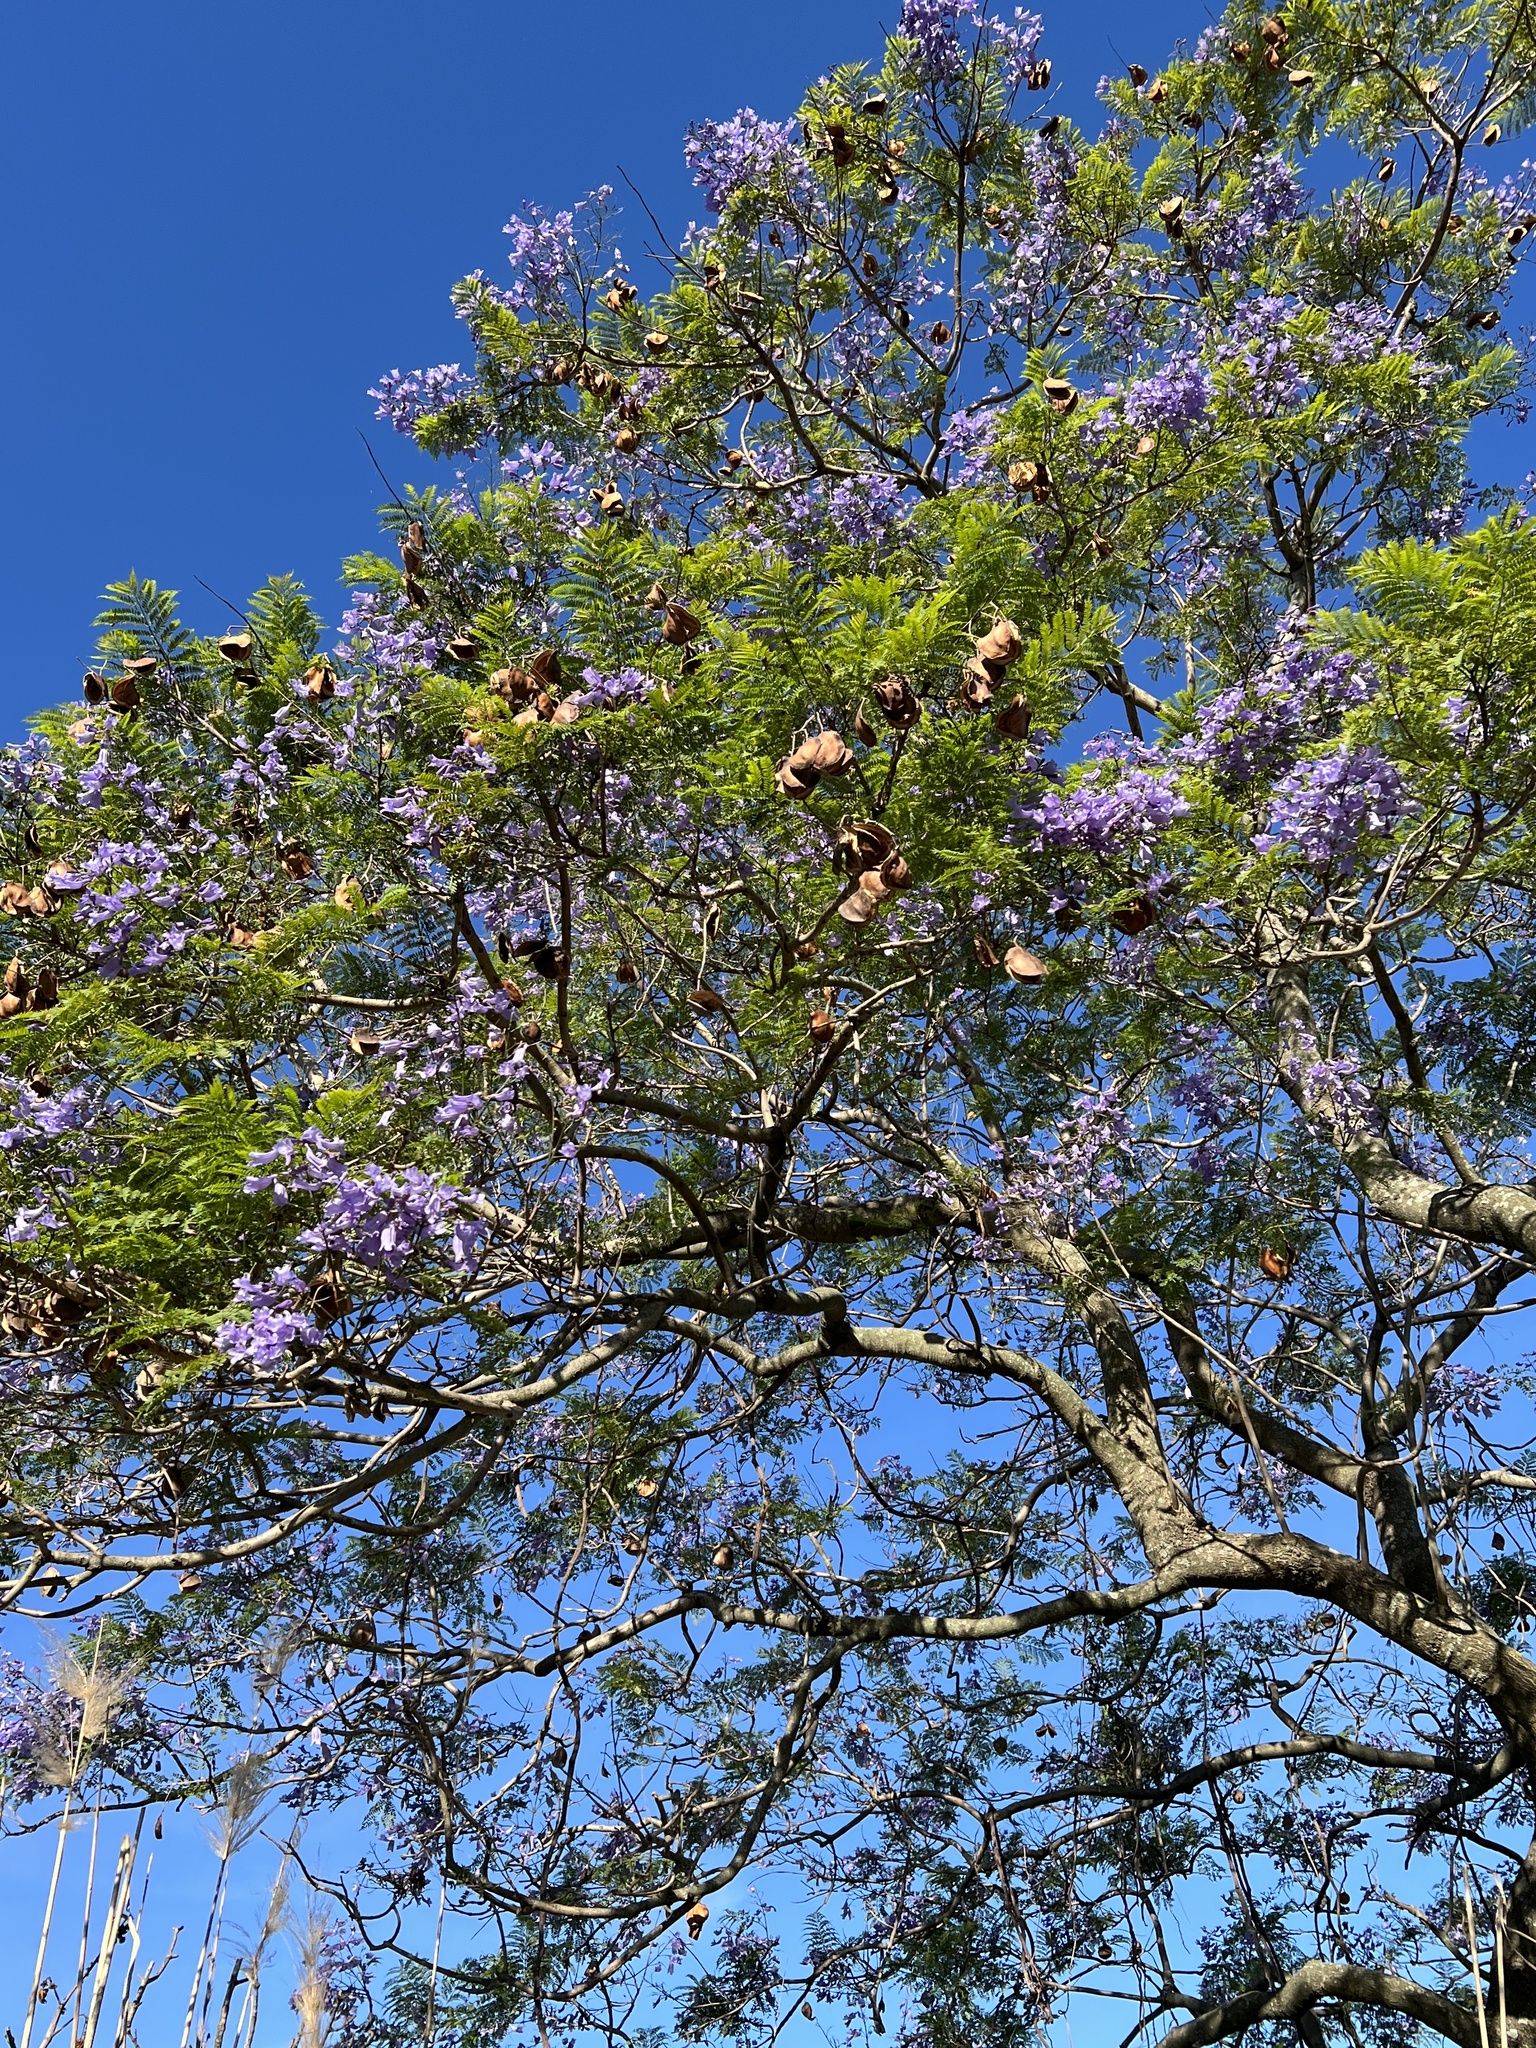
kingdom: Plantae
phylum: Tracheophyta
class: Magnoliopsida
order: Lamiales
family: Bignoniaceae
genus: Jacaranda
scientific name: Jacaranda mimosifolia
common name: Black poui
